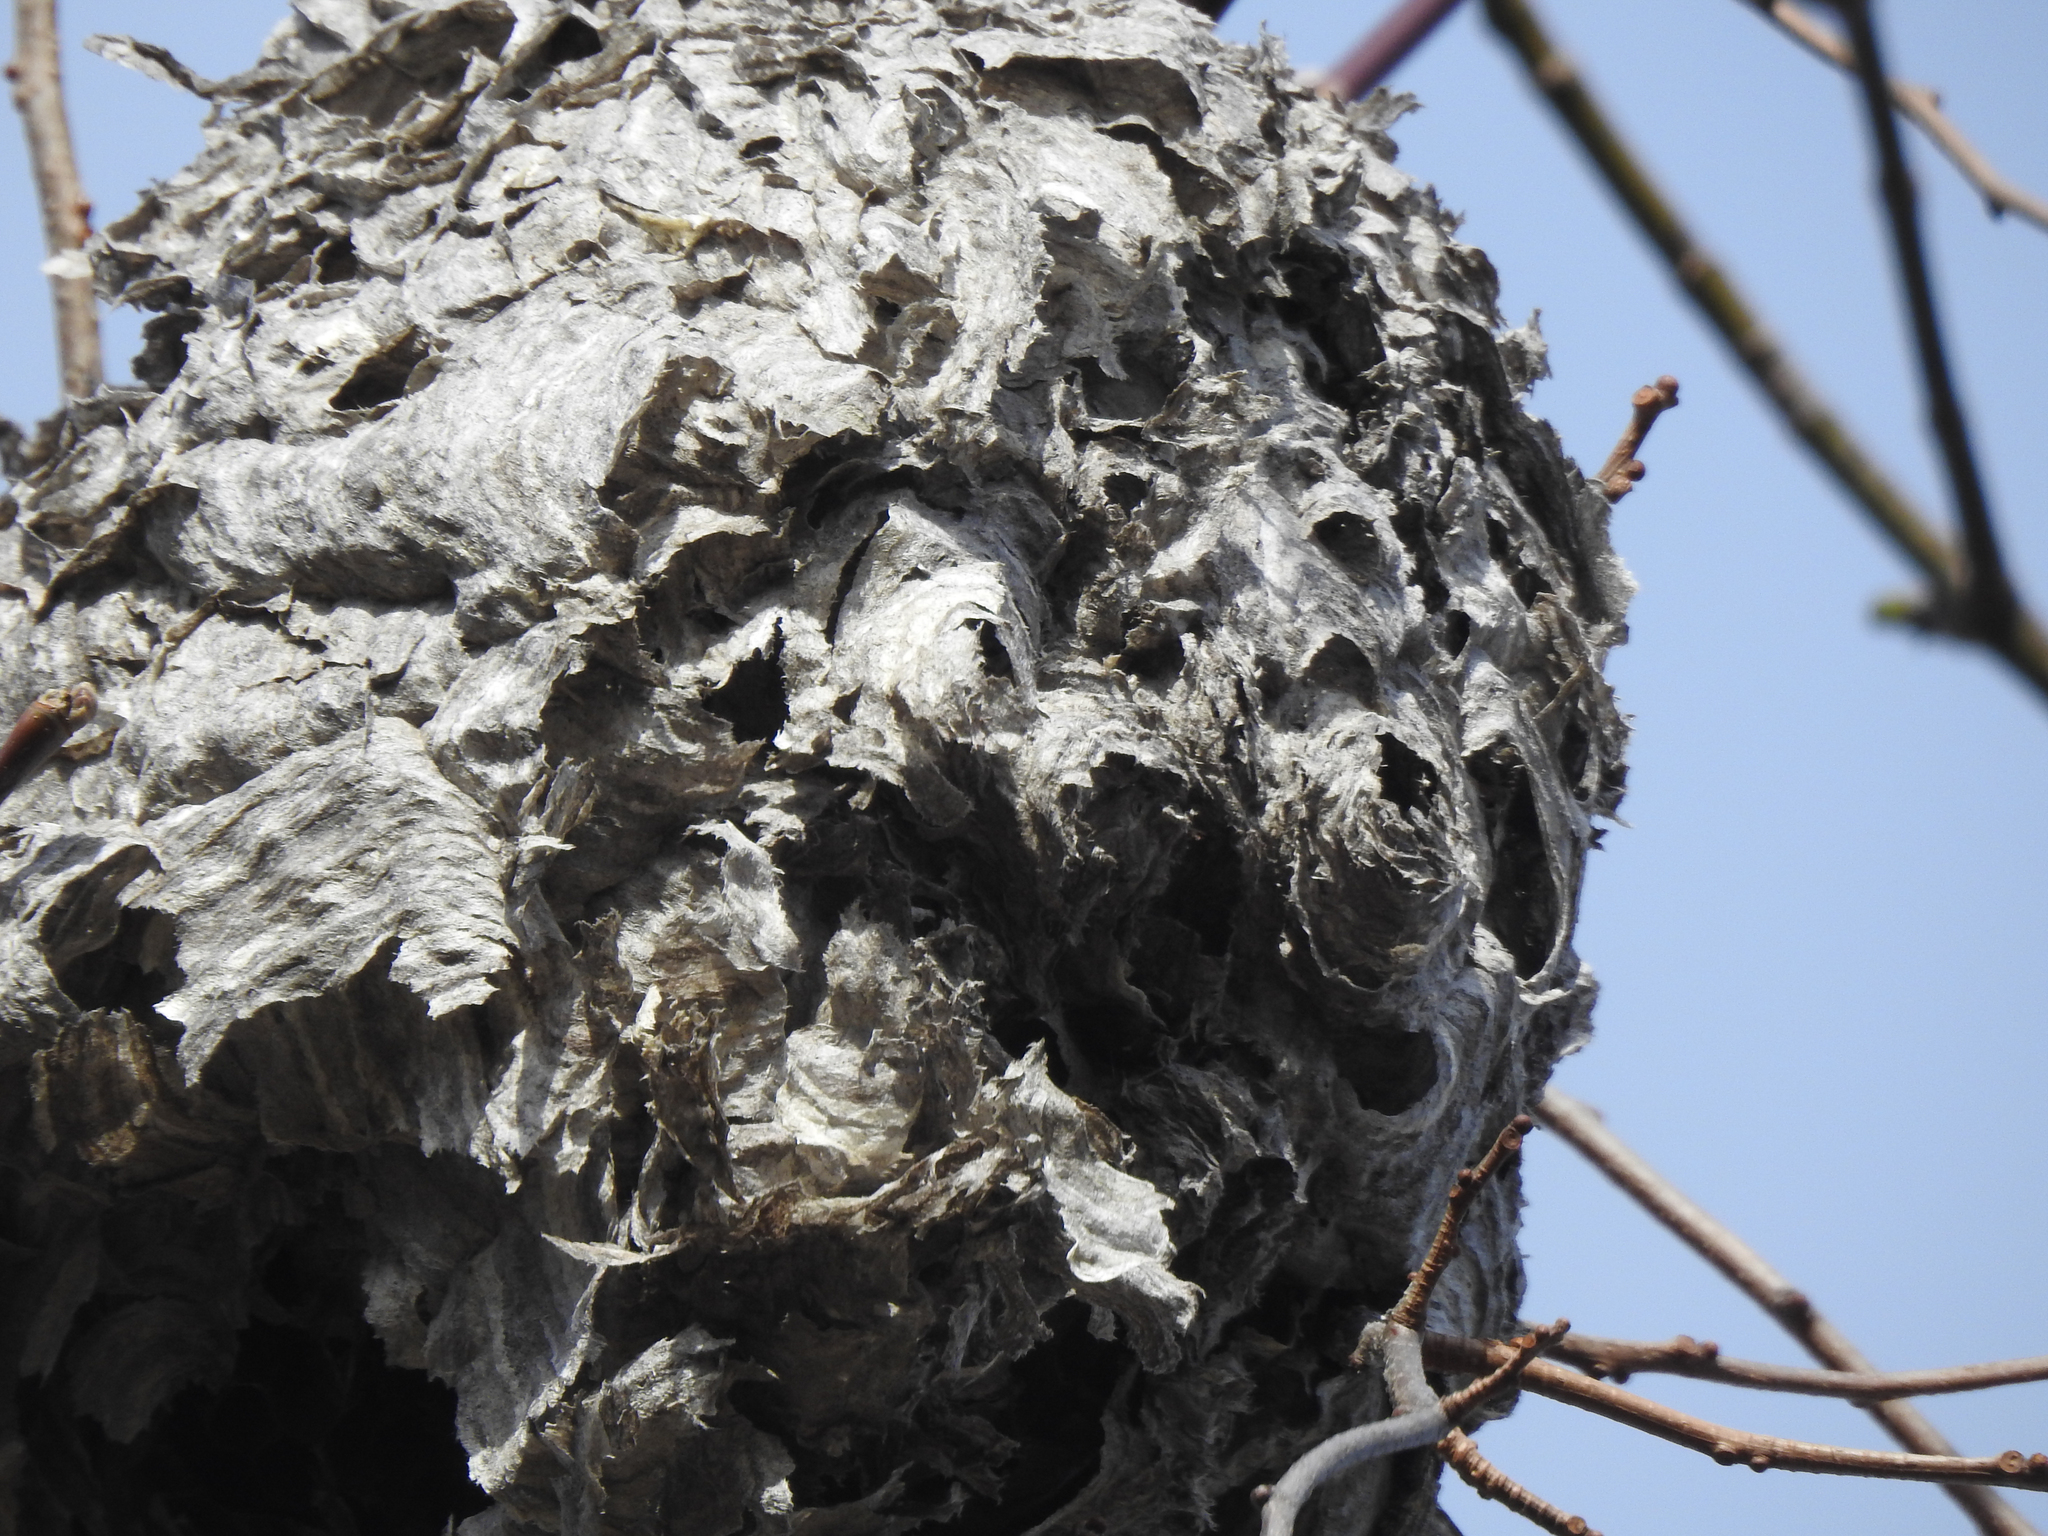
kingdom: Animalia
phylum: Arthropoda
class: Insecta
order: Hymenoptera
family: Vespidae
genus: Dolichovespula
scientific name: Dolichovespula maculata
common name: Bald-faced hornet
